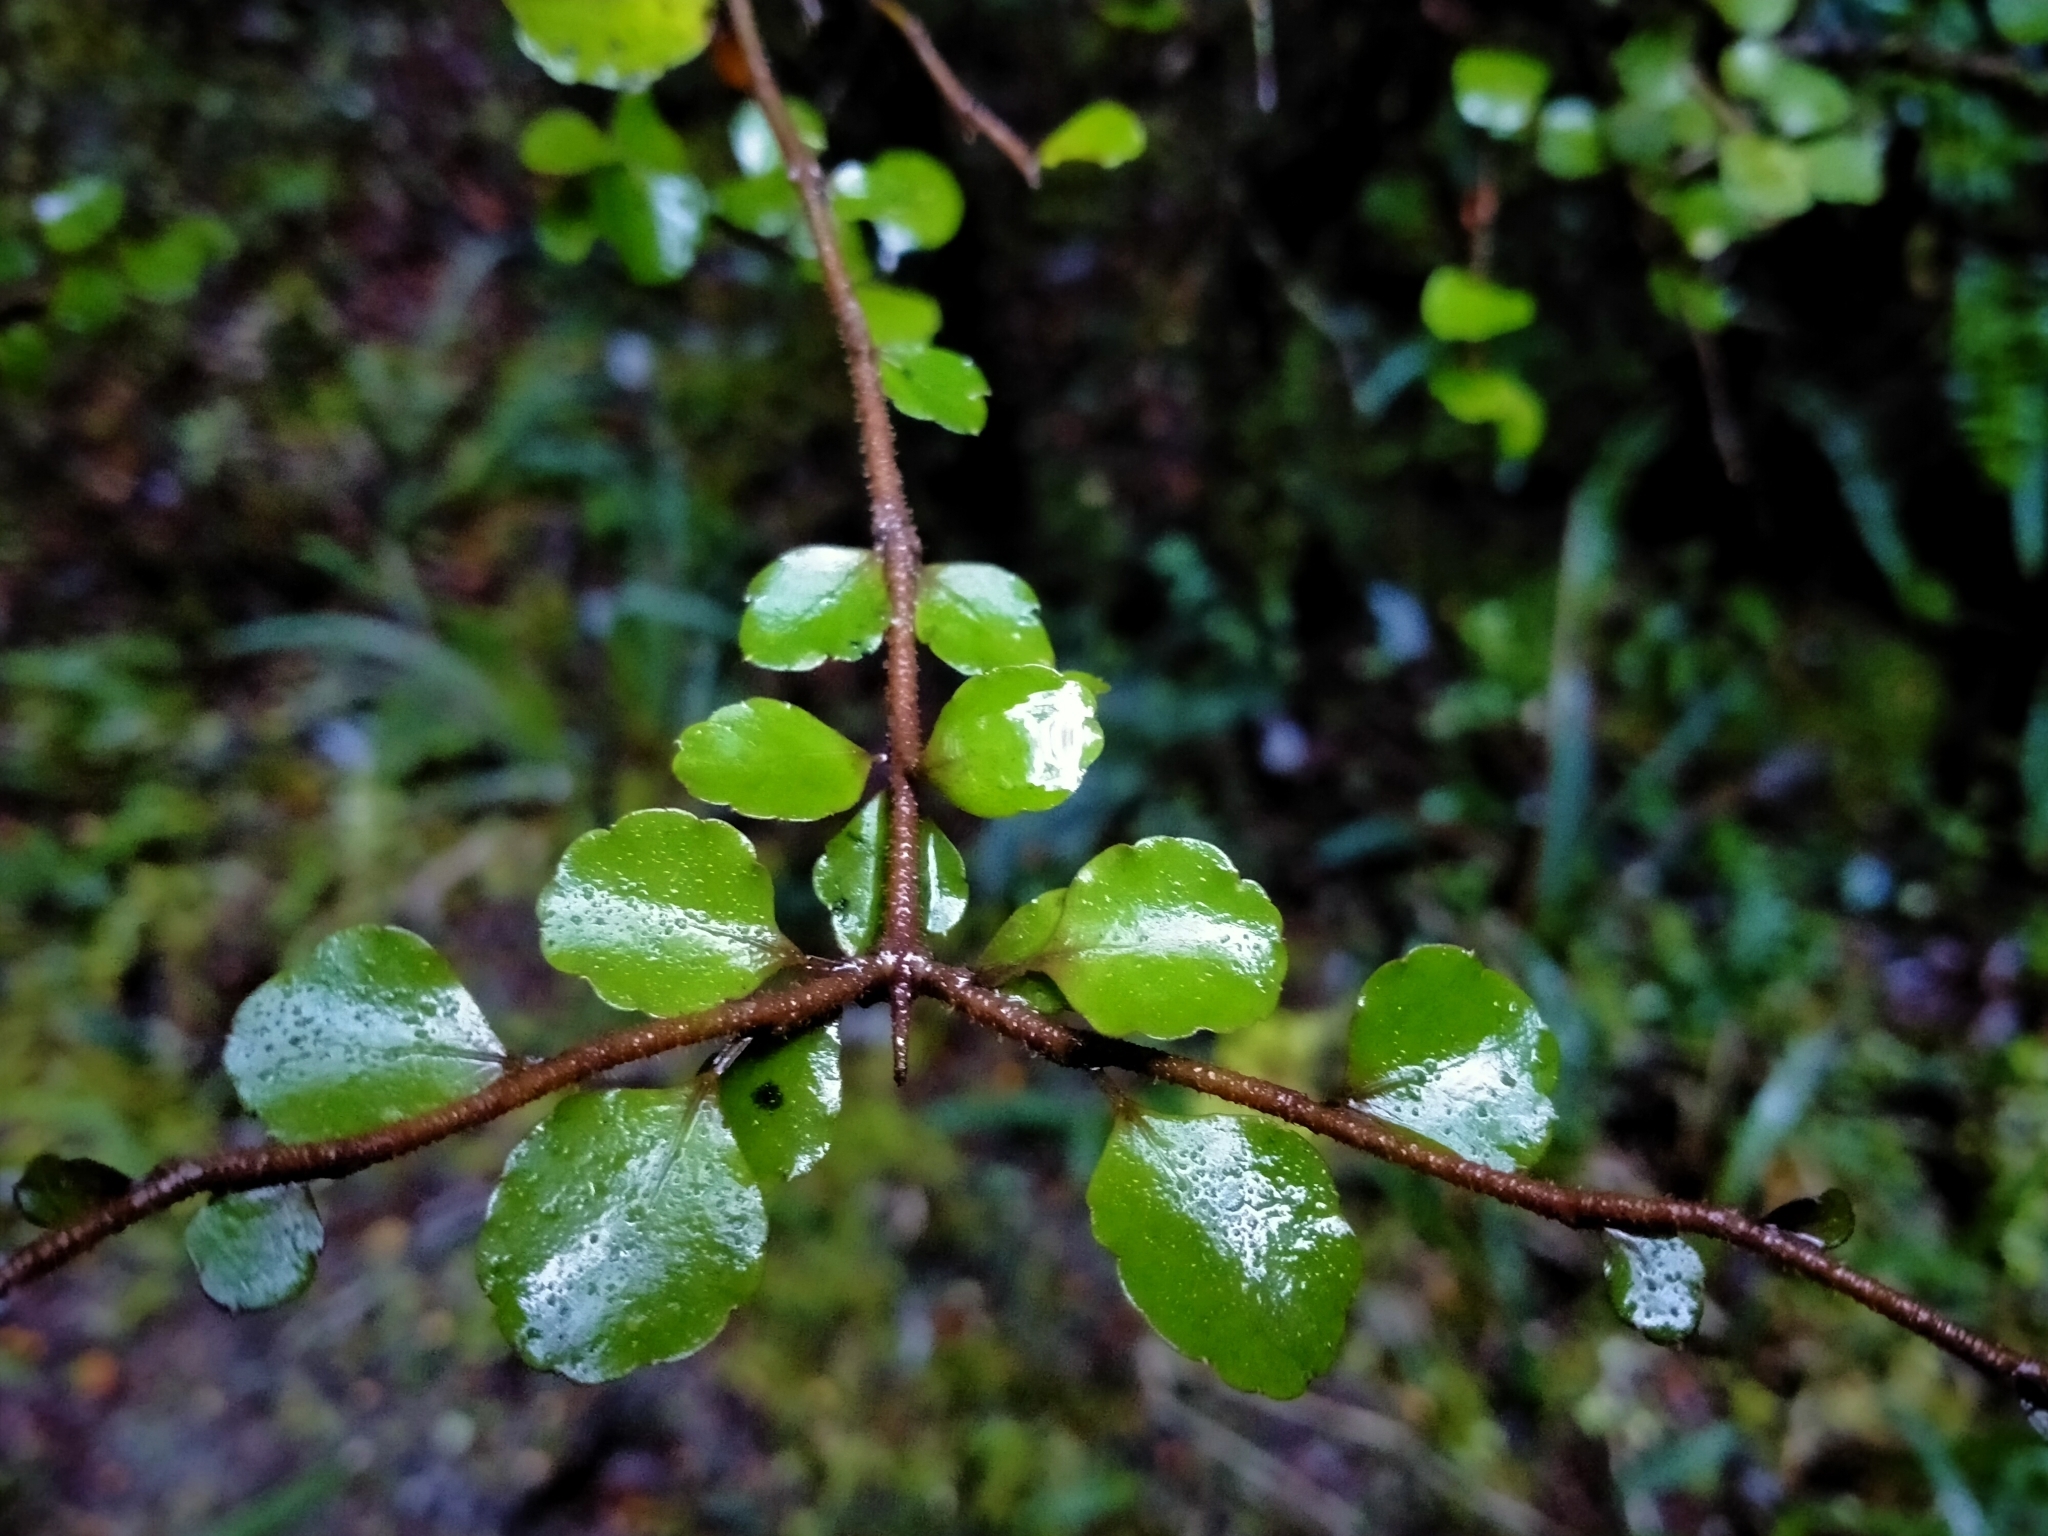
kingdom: Plantae
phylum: Tracheophyta
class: Magnoliopsida
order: Apiales
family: Araliaceae
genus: Raukaua
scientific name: Raukaua anomalus
